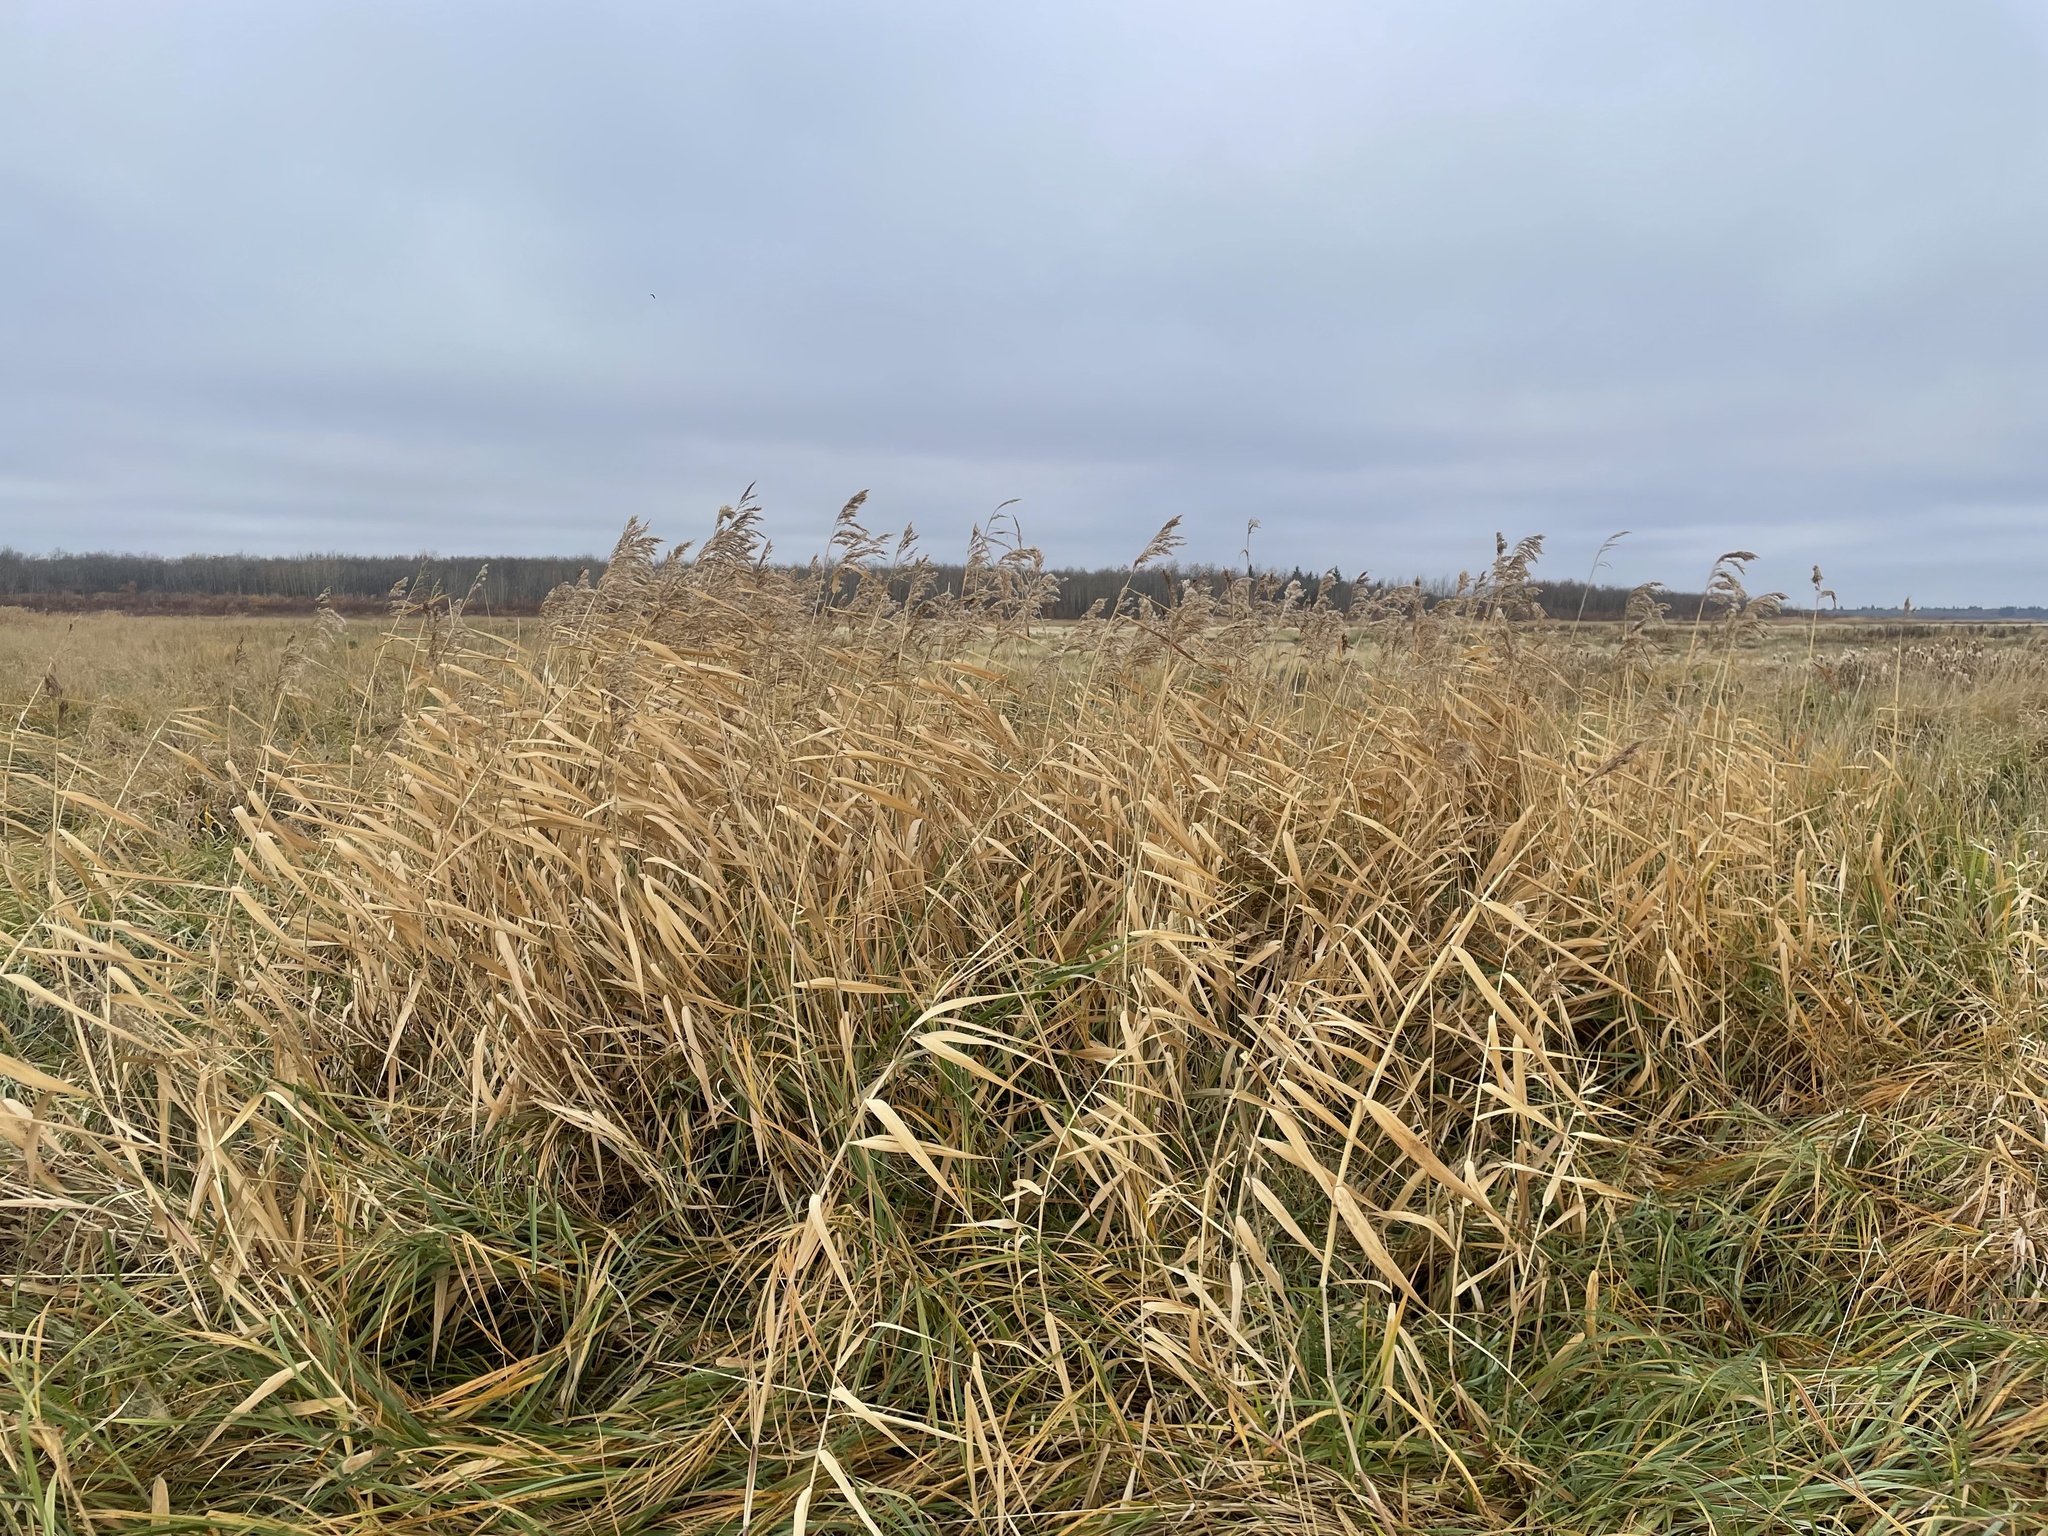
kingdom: Plantae
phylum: Tracheophyta
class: Liliopsida
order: Poales
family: Poaceae
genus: Phragmites
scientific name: Phragmites australis
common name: Common reed
